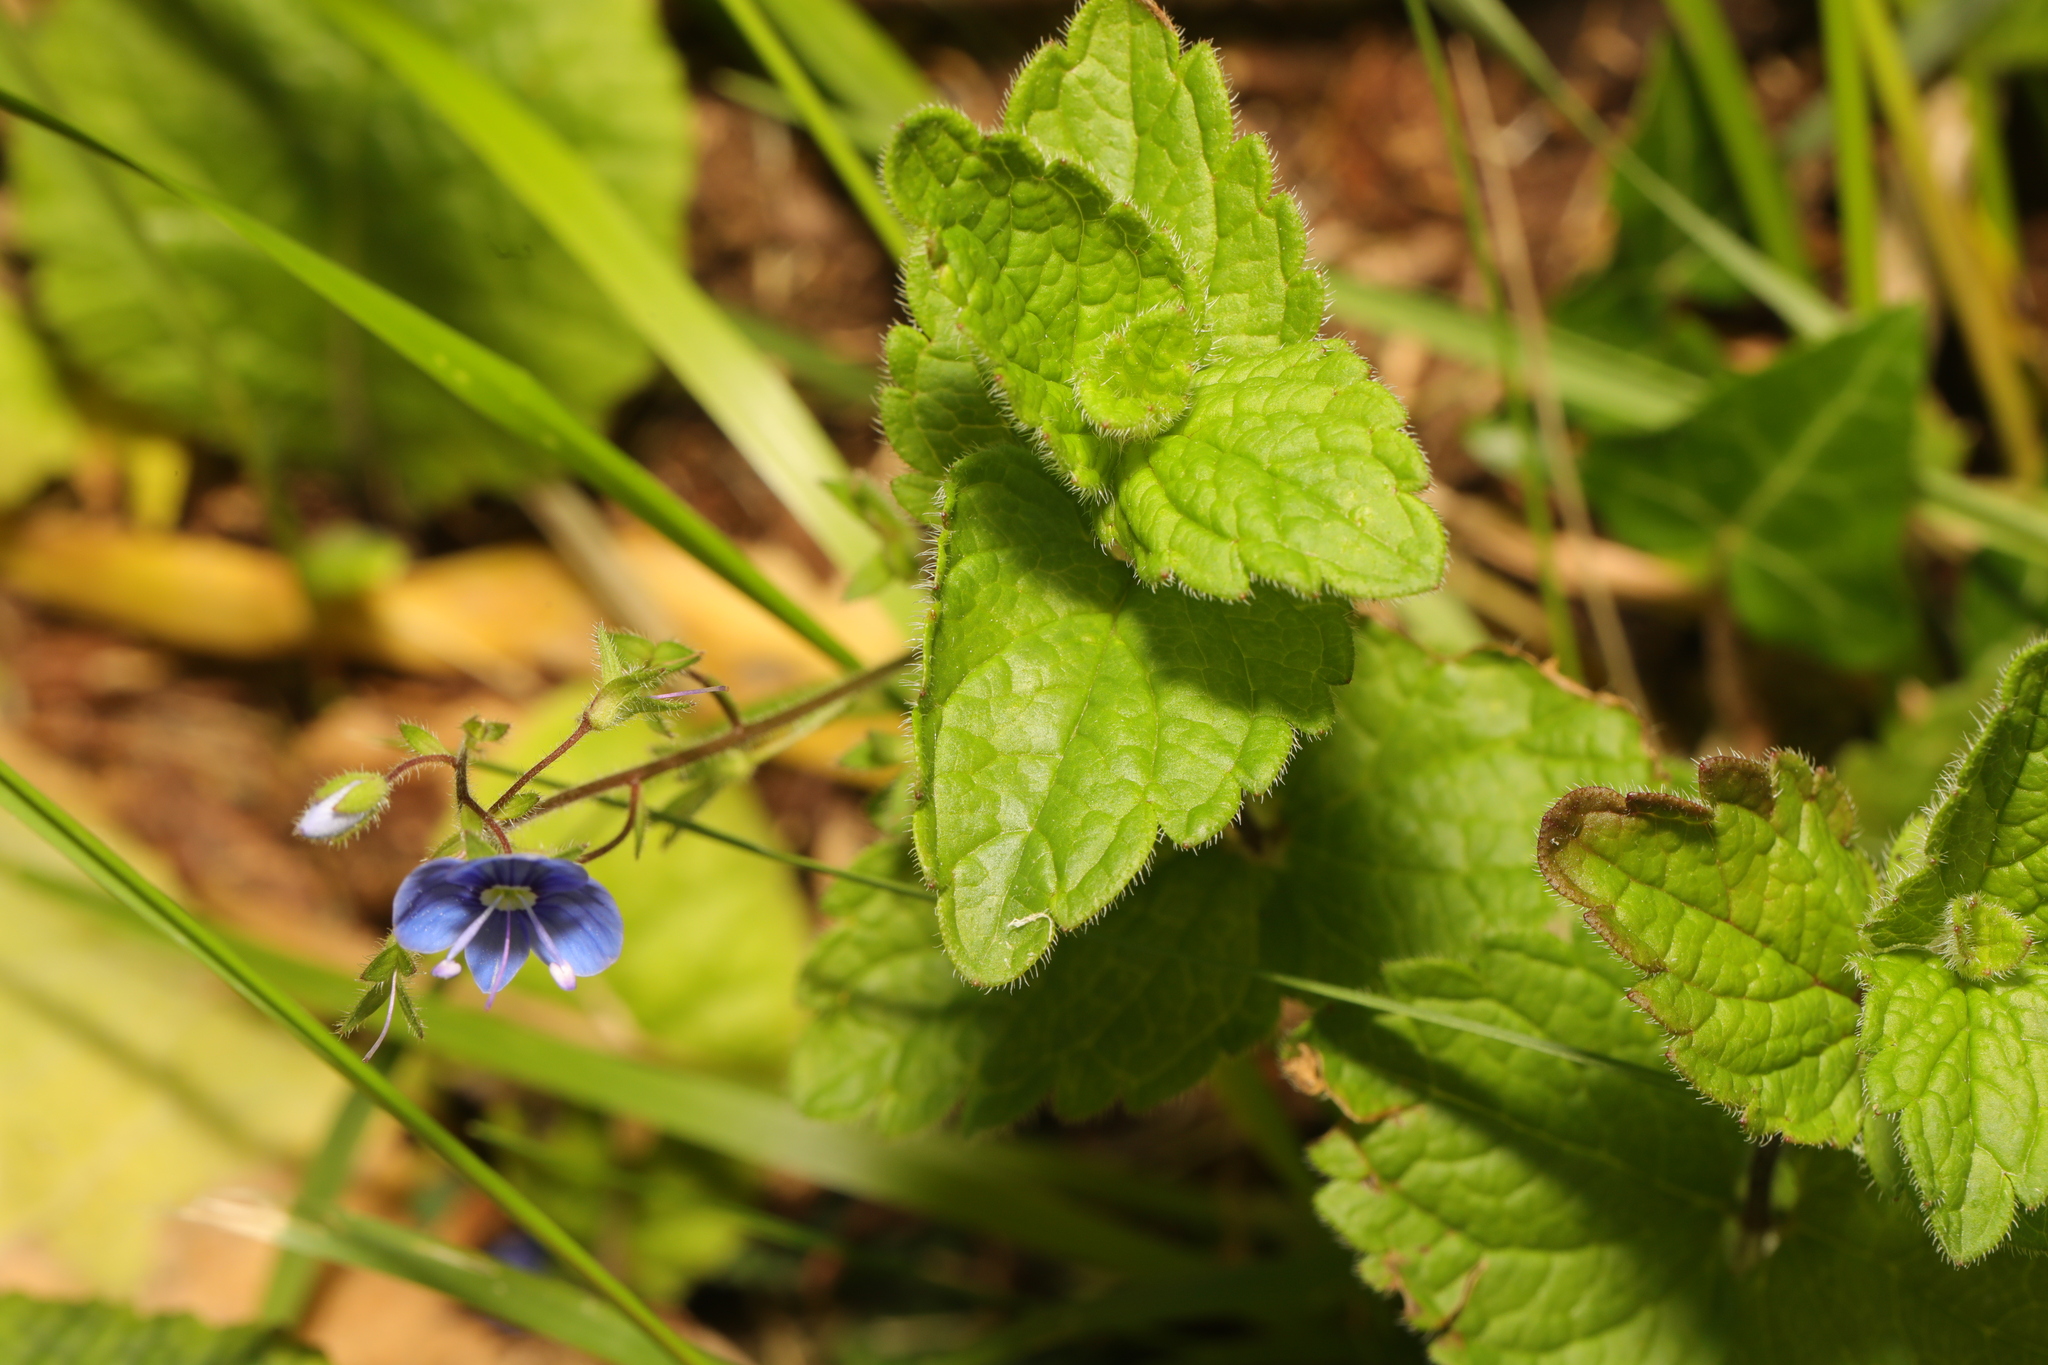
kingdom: Plantae
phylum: Tracheophyta
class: Magnoliopsida
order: Lamiales
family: Plantaginaceae
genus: Veronica
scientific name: Veronica chamaedrys
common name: Germander speedwell
